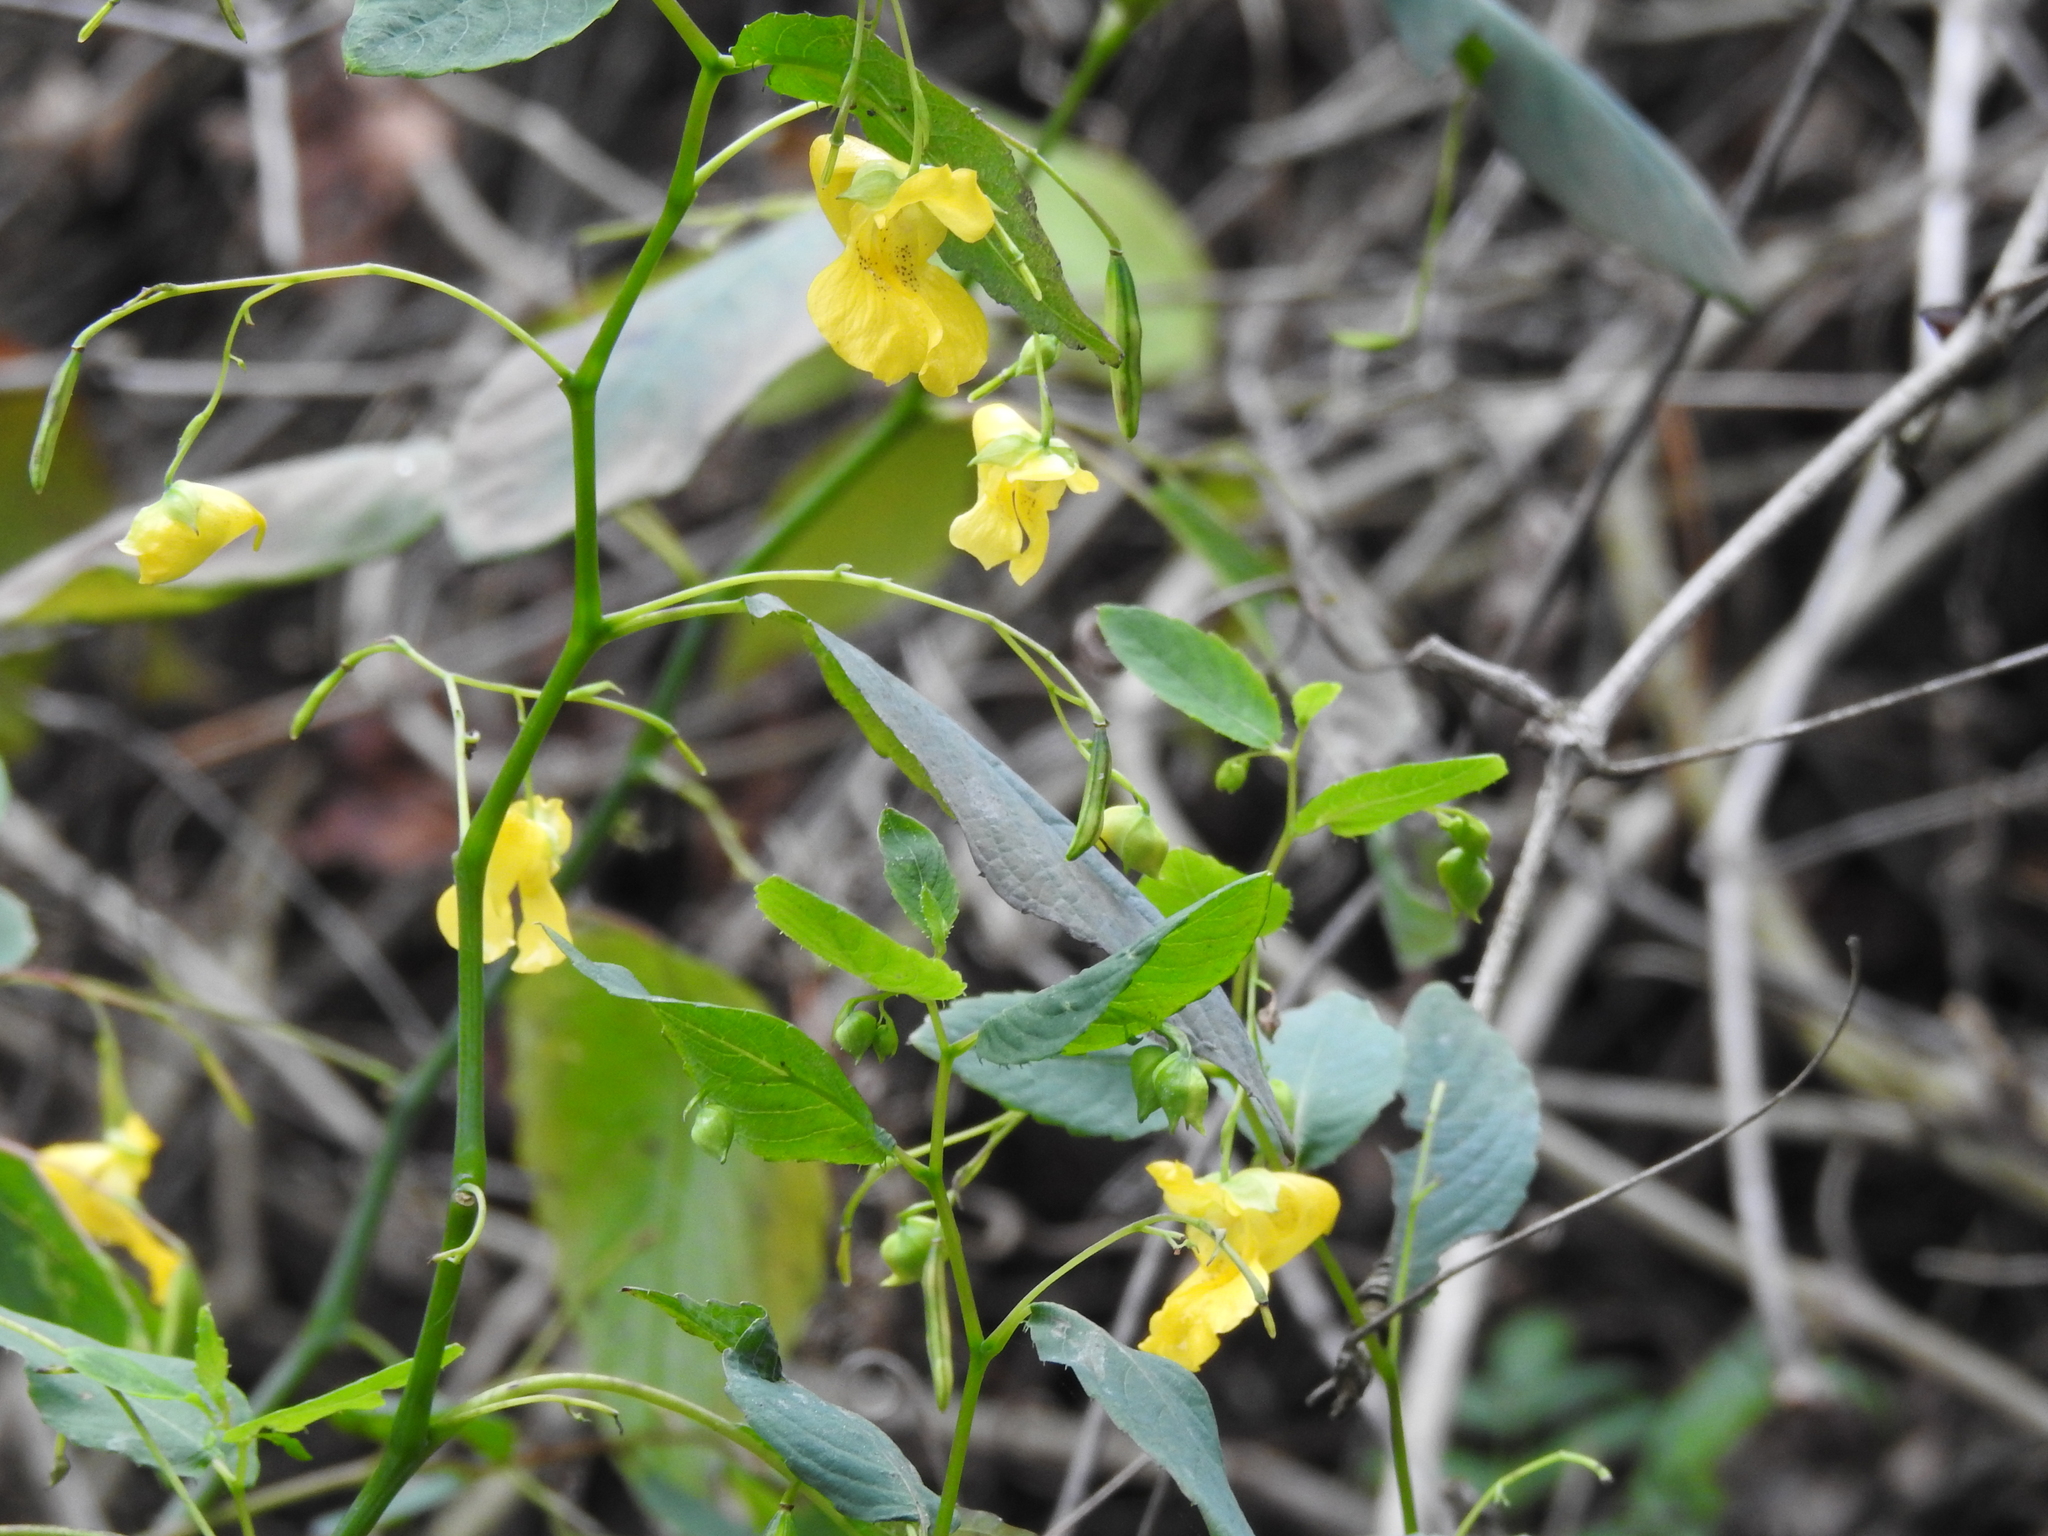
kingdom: Plantae
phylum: Tracheophyta
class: Magnoliopsida
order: Ericales
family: Balsaminaceae
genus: Impatiens
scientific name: Impatiens pallida
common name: Pale snapweed
